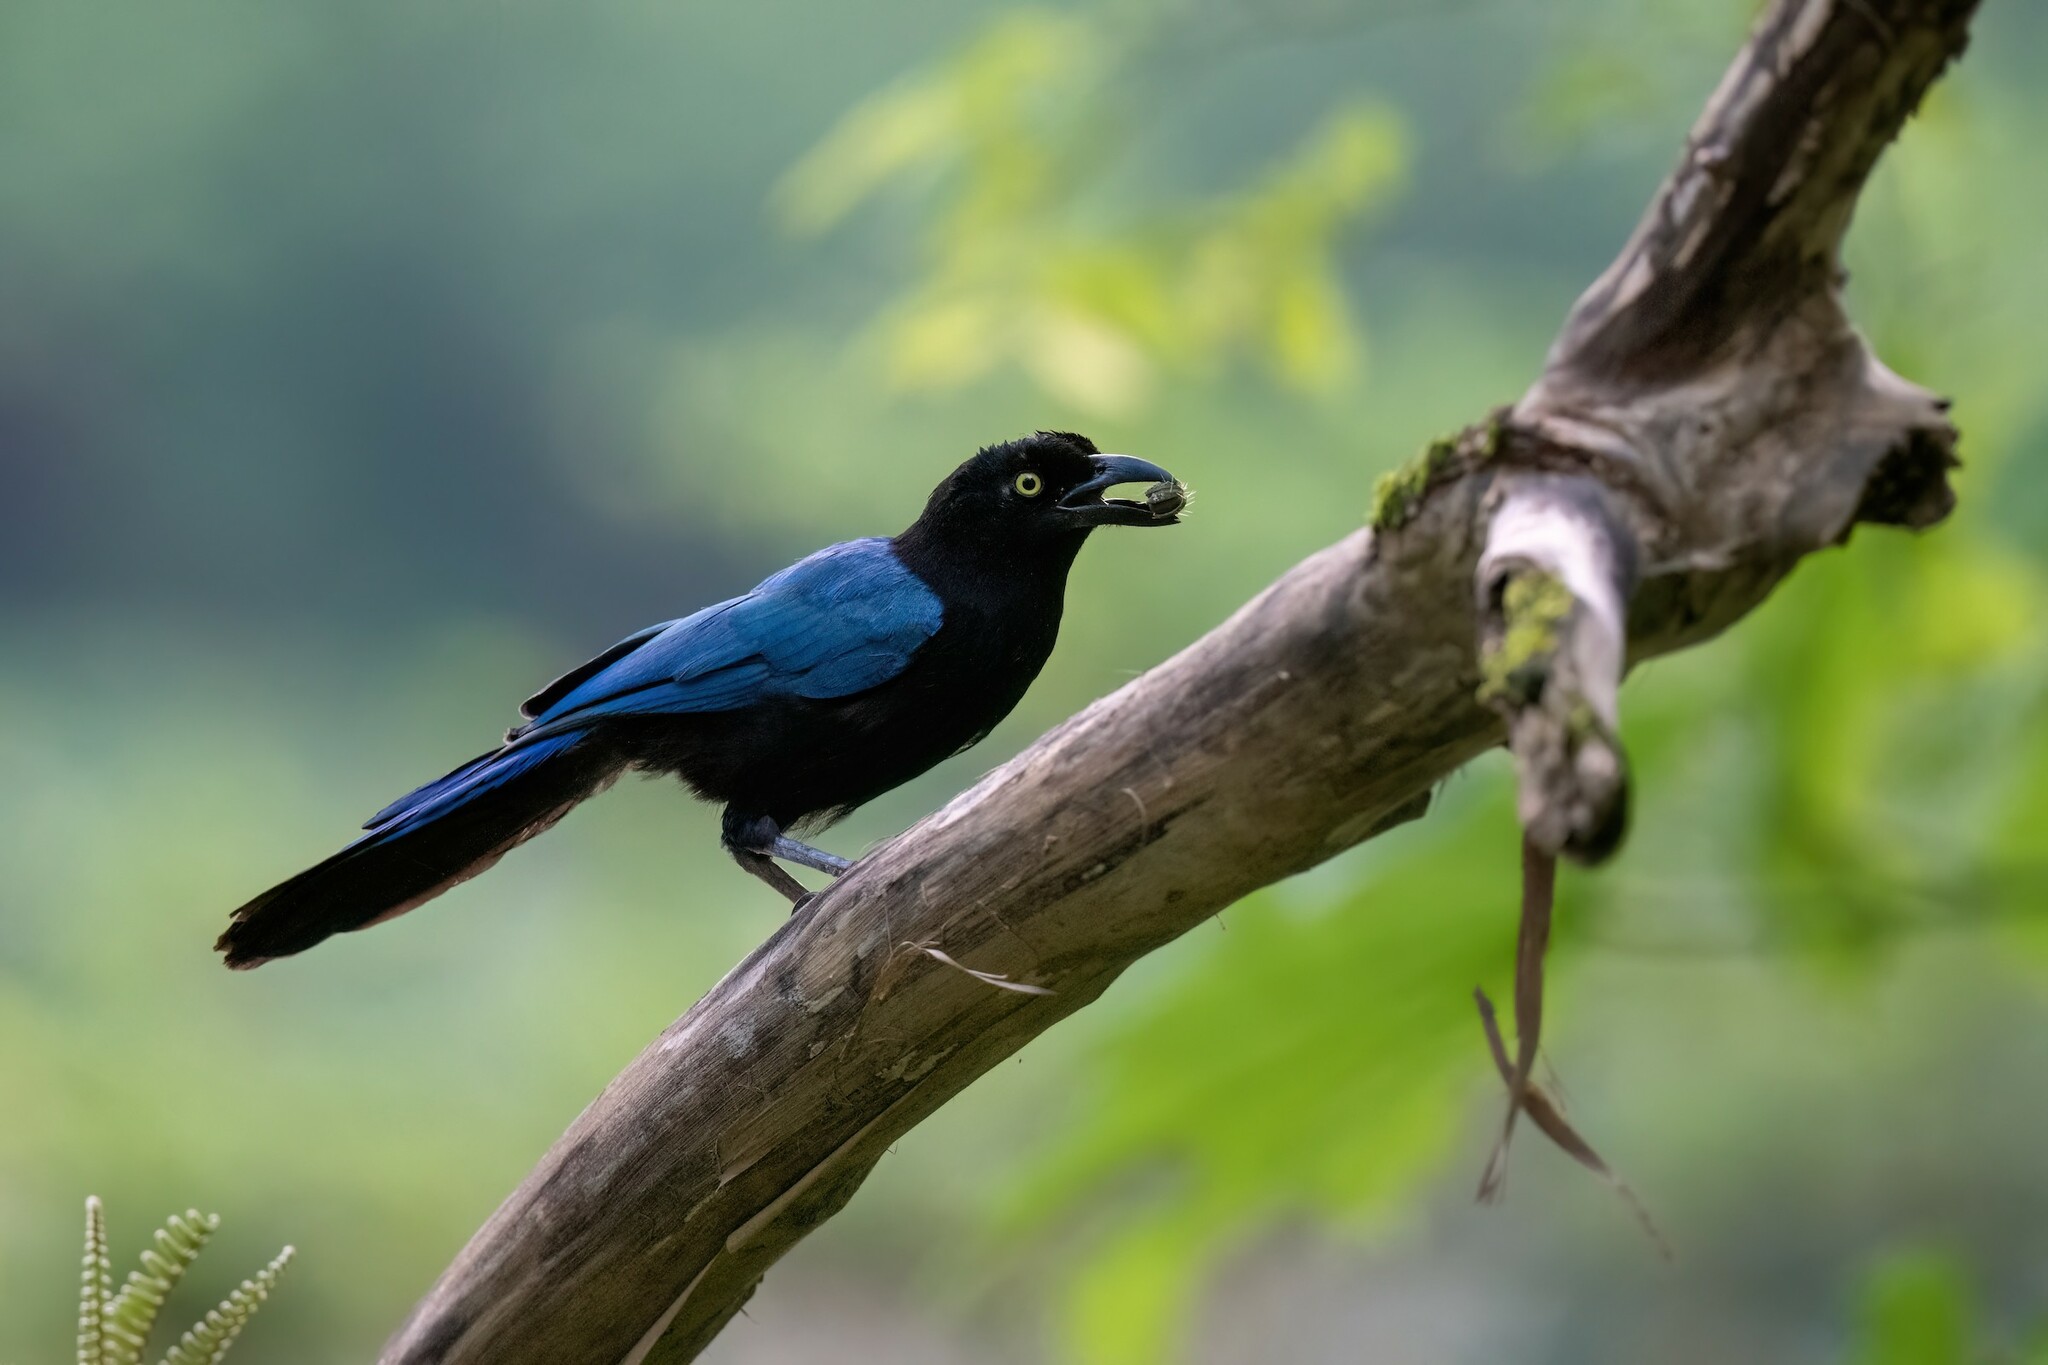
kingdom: Animalia
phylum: Chordata
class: Aves
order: Passeriformes
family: Corvidae
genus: Cyanocorax
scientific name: Cyanocorax sanblasianus
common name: San blas jay
